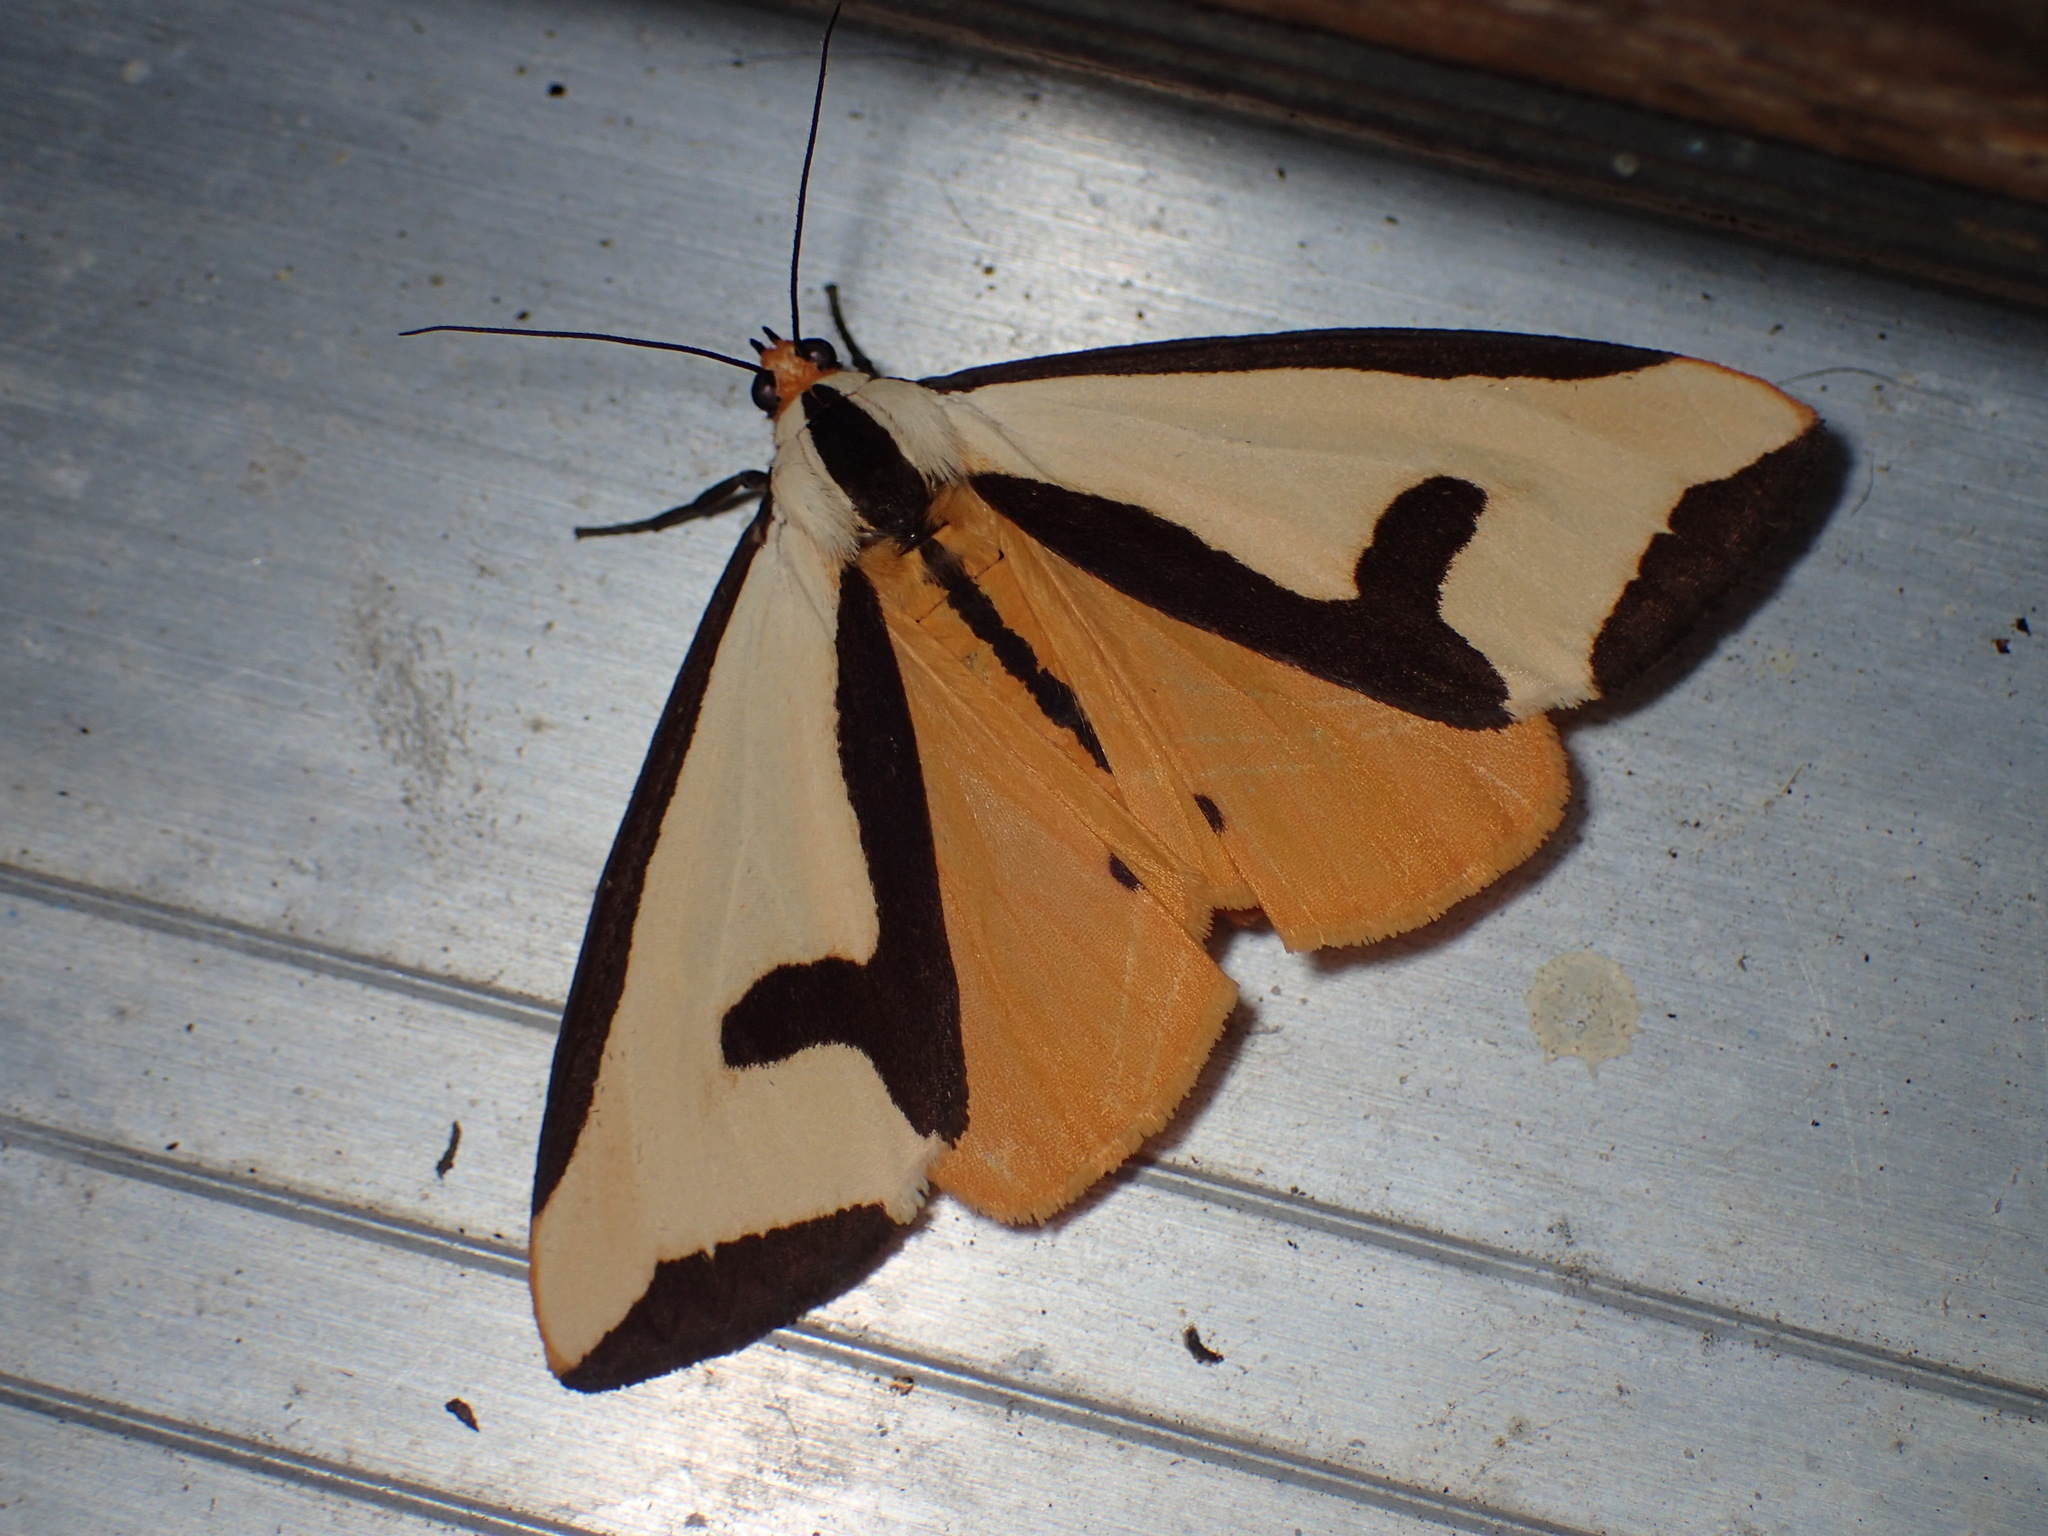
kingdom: Animalia
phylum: Arthropoda
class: Insecta
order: Lepidoptera
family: Erebidae
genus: Haploa
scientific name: Haploa clymene
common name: Clymene moth
